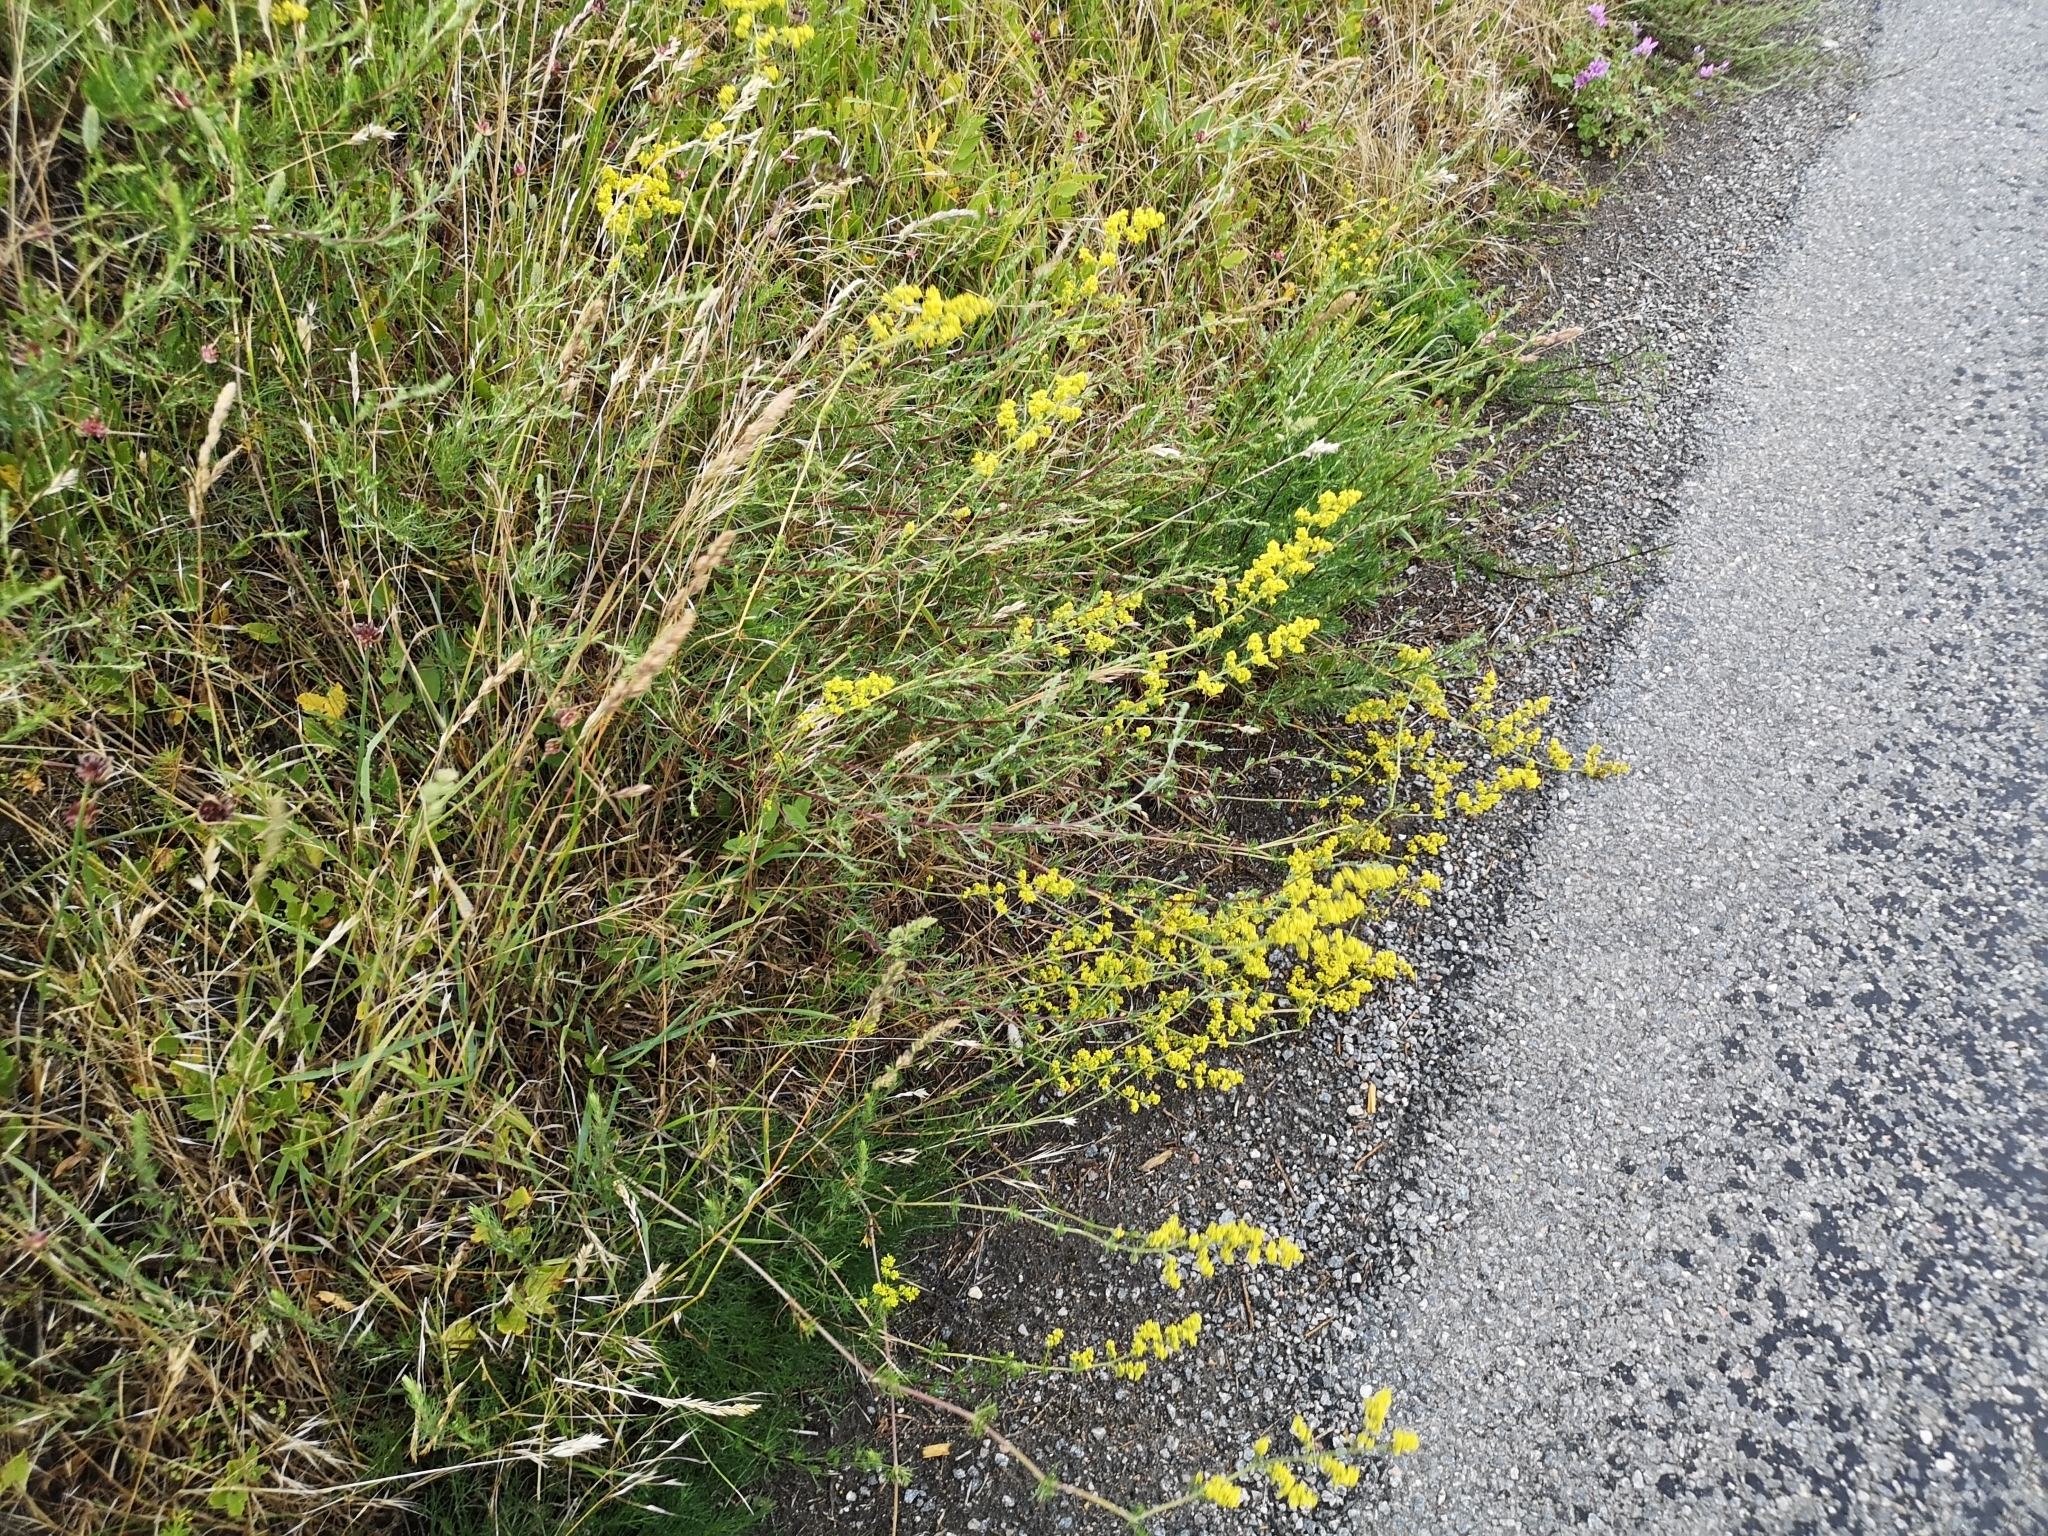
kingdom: Plantae
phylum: Tracheophyta
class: Magnoliopsida
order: Gentianales
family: Rubiaceae
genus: Galium
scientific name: Galium verum
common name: Lady's bedstraw
